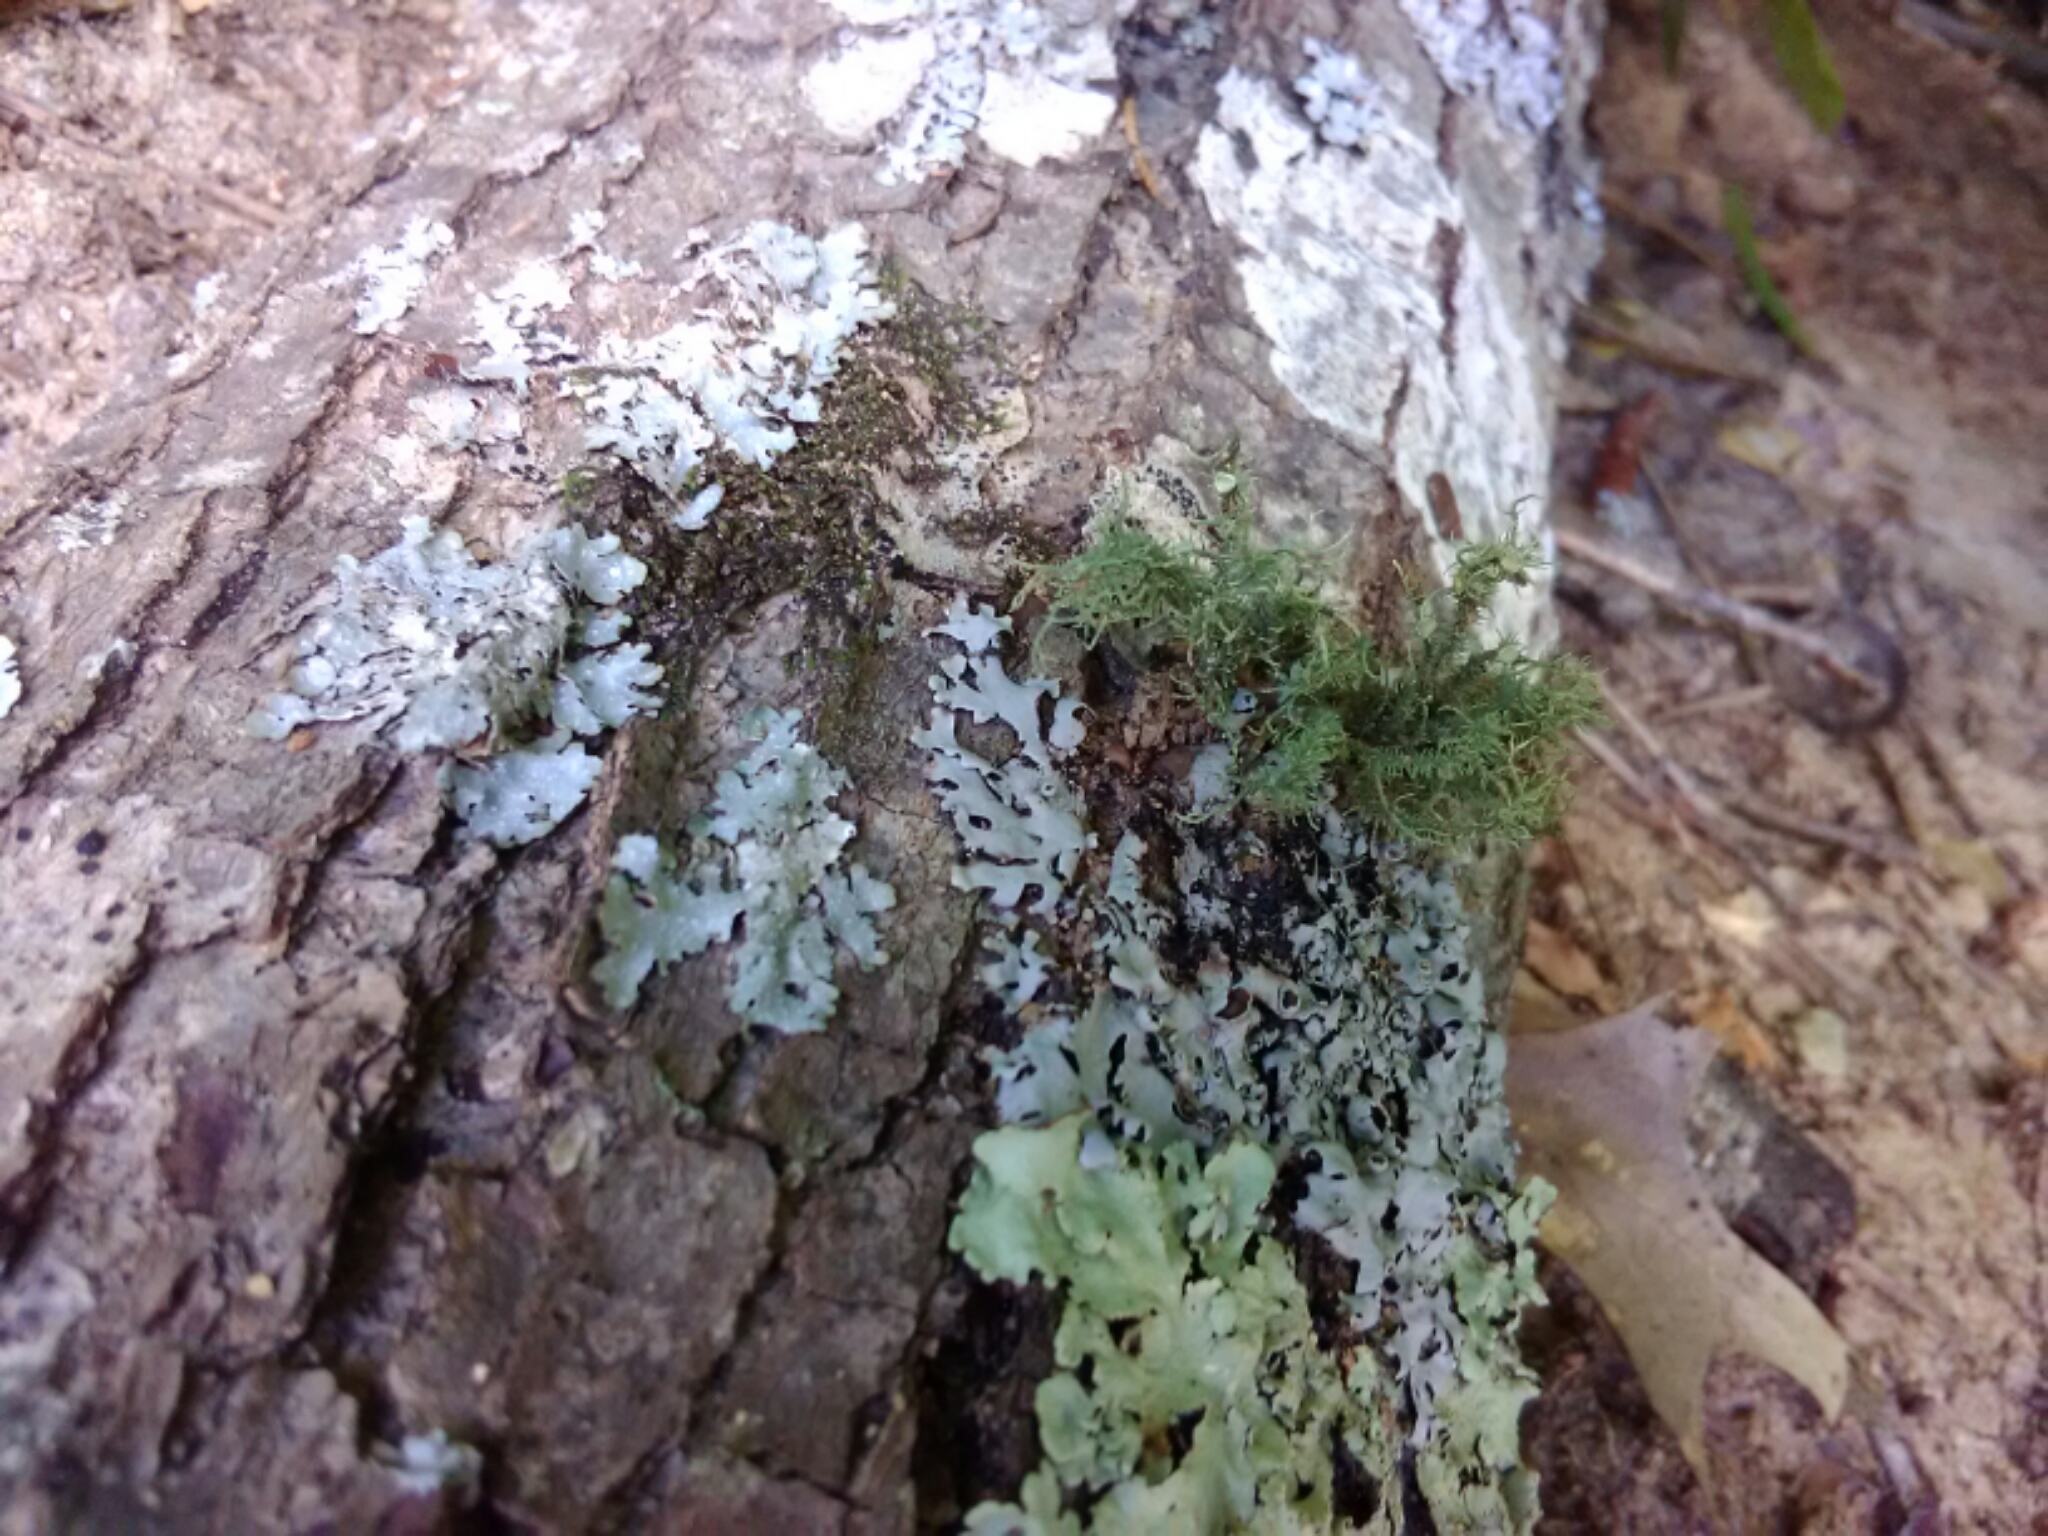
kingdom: Fungi
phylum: Ascomycota
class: Lecanoromycetes
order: Lecanorales
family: Parmeliaceae
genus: Usnea
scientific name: Usnea strigosa
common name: Bushy beard lichen
